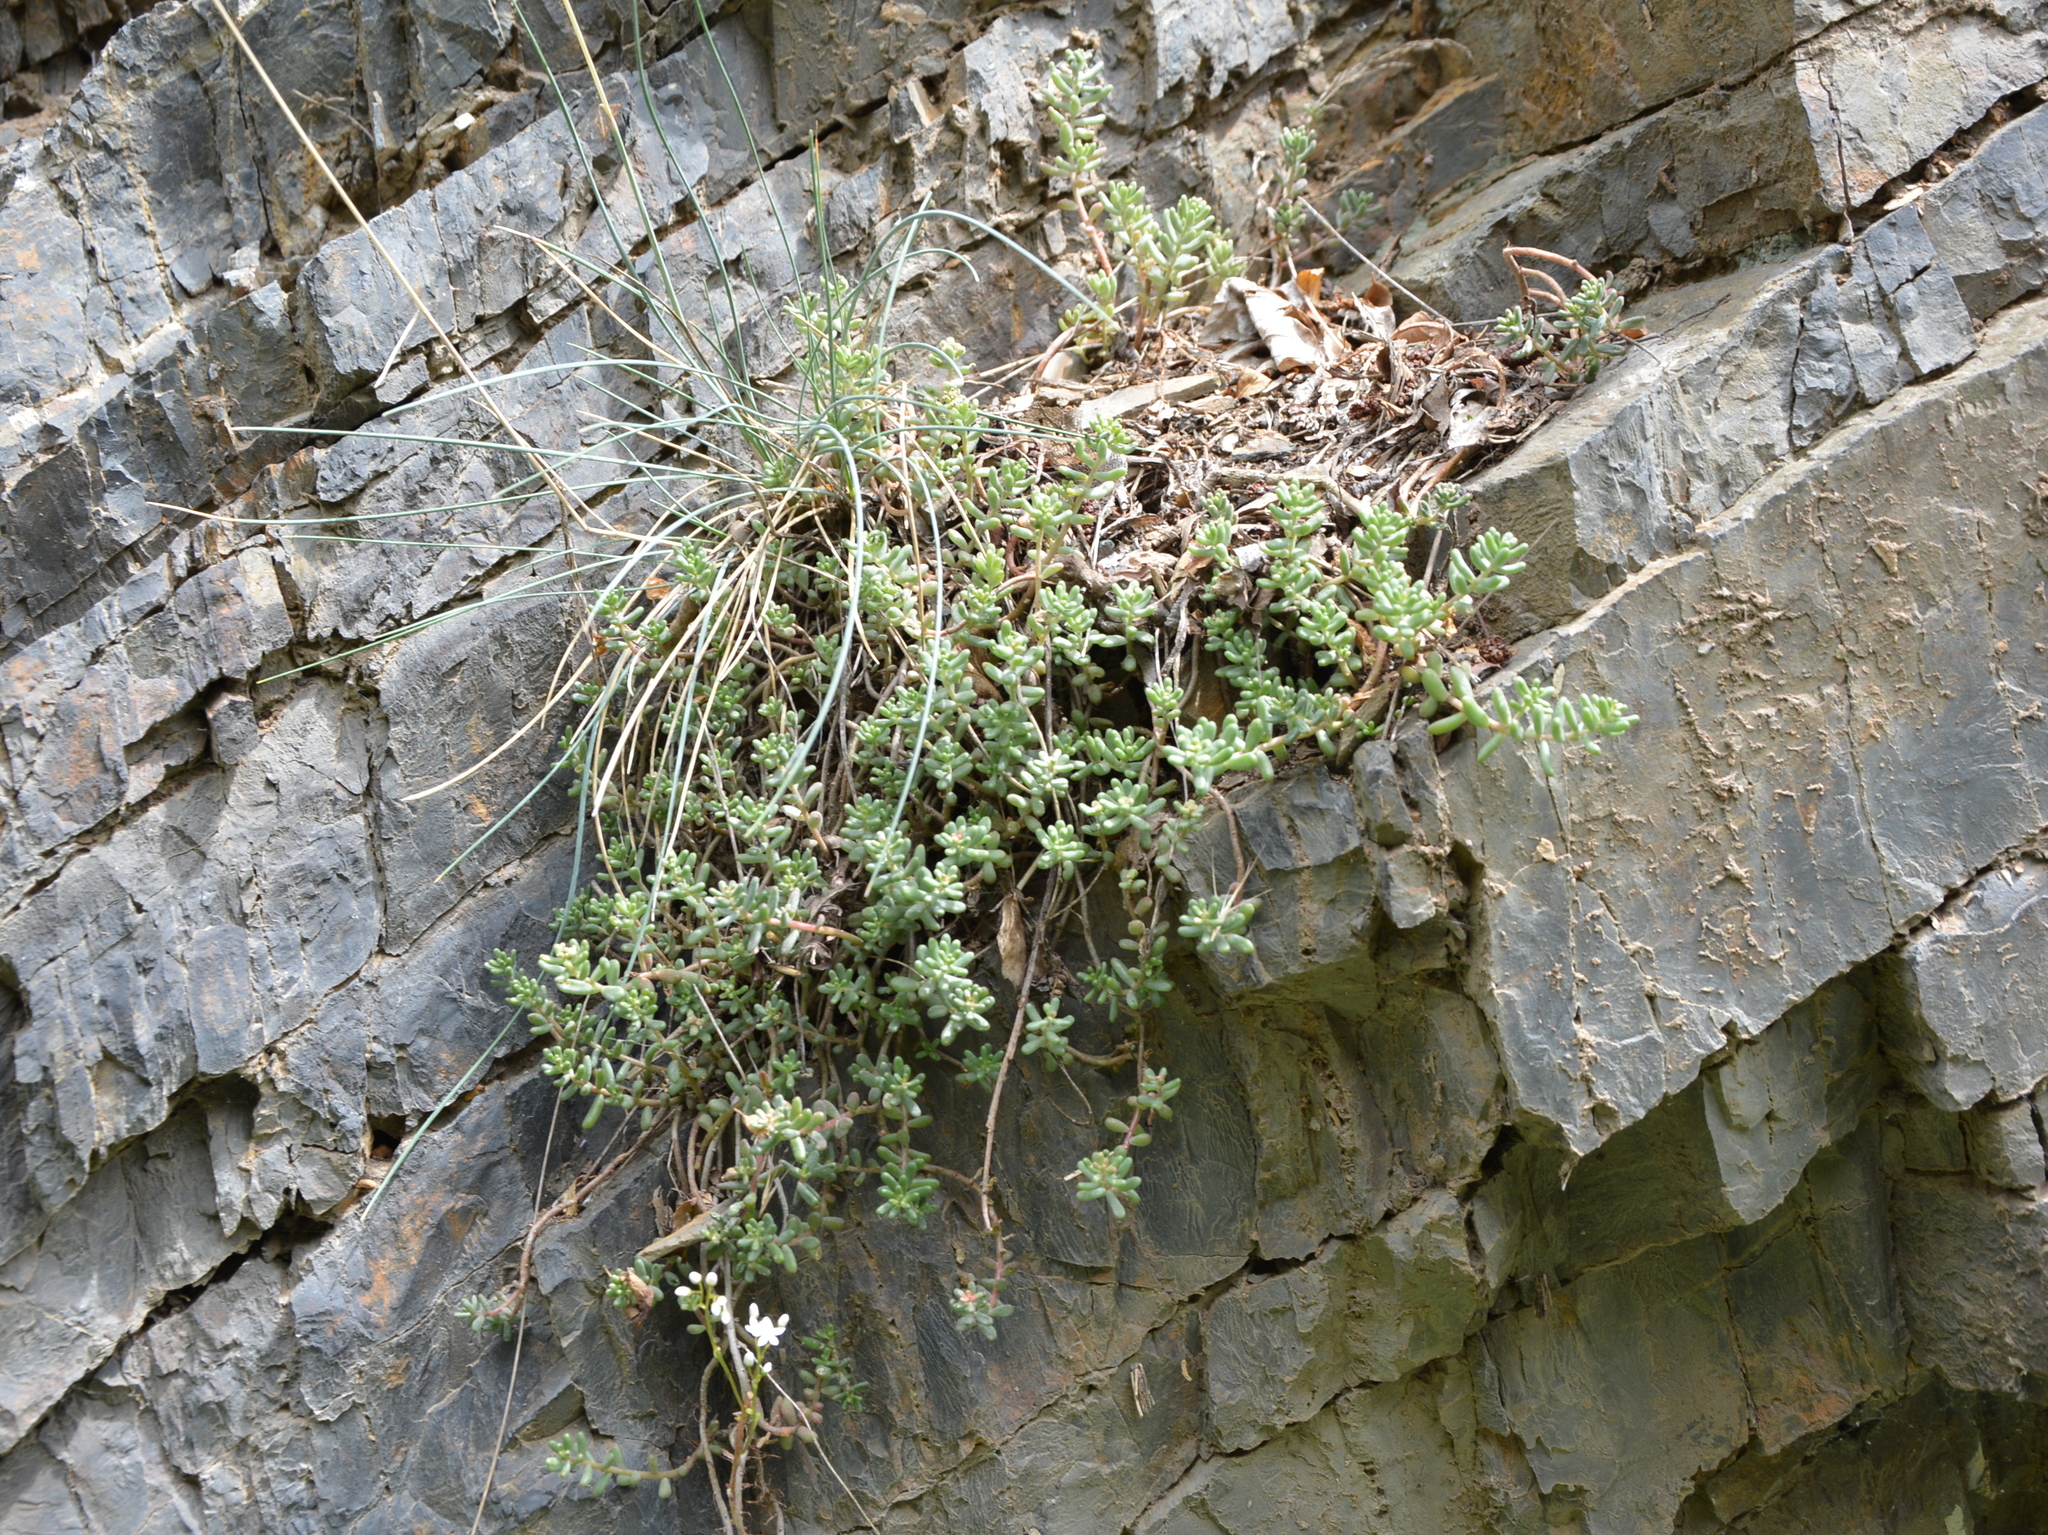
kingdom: Plantae
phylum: Tracheophyta
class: Magnoliopsida
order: Saxifragales
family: Crassulaceae
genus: Sedum
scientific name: Sedum album
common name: White stonecrop
